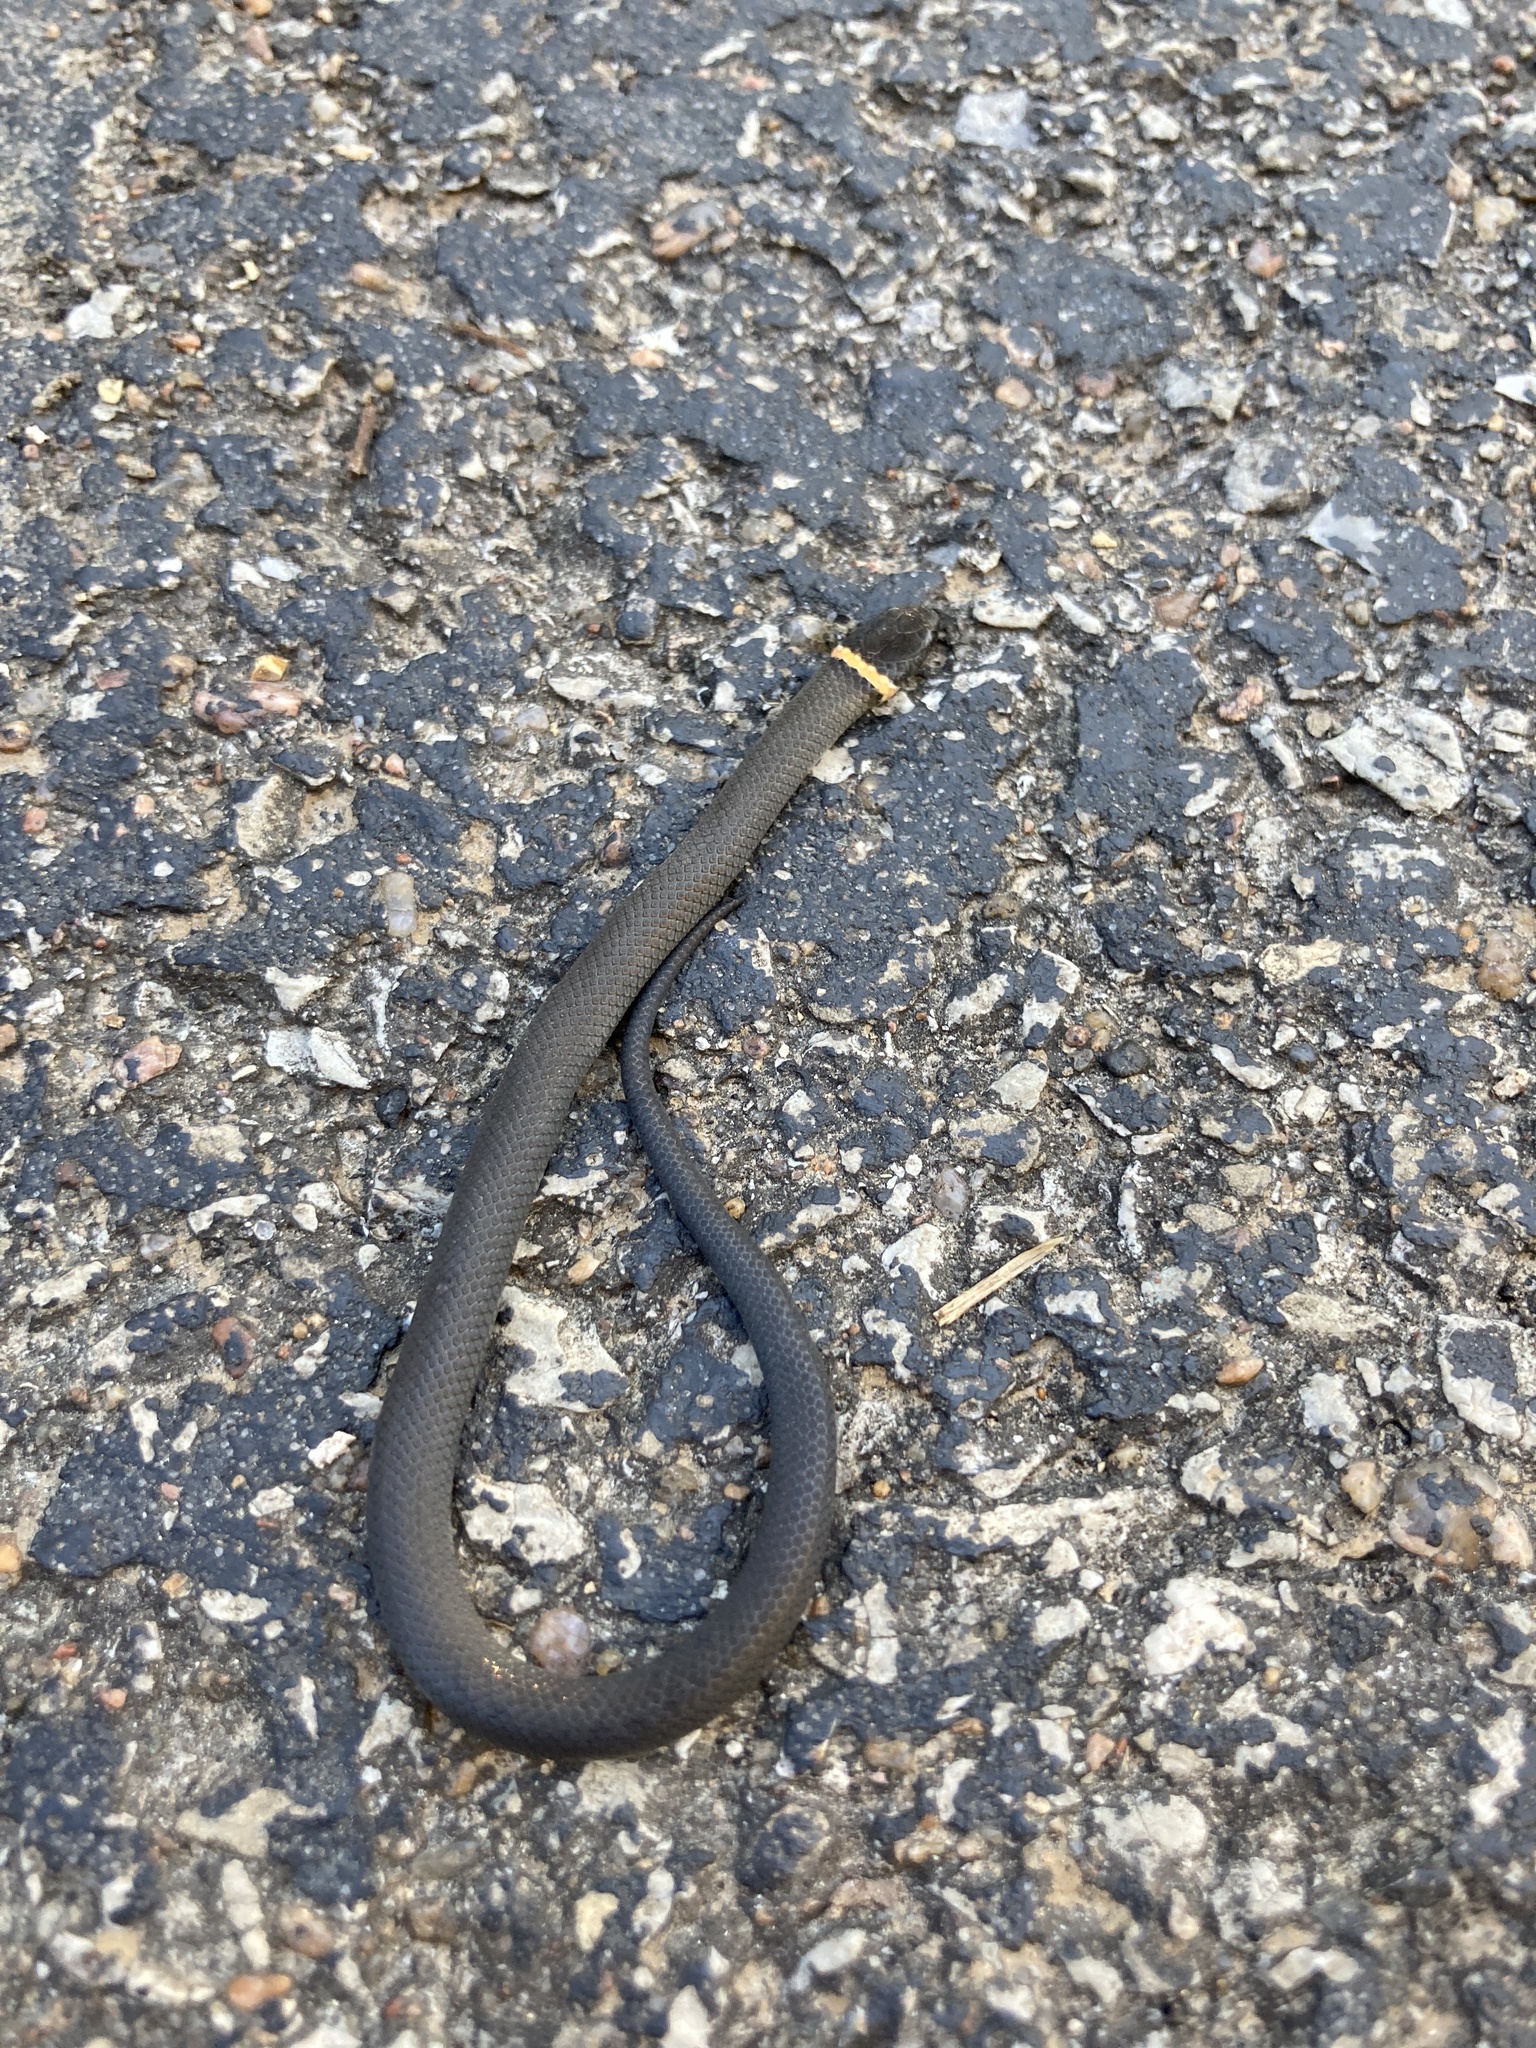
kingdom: Animalia
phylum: Chordata
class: Squamata
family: Colubridae
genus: Diadophis
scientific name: Diadophis punctatus
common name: Ringneck snake
